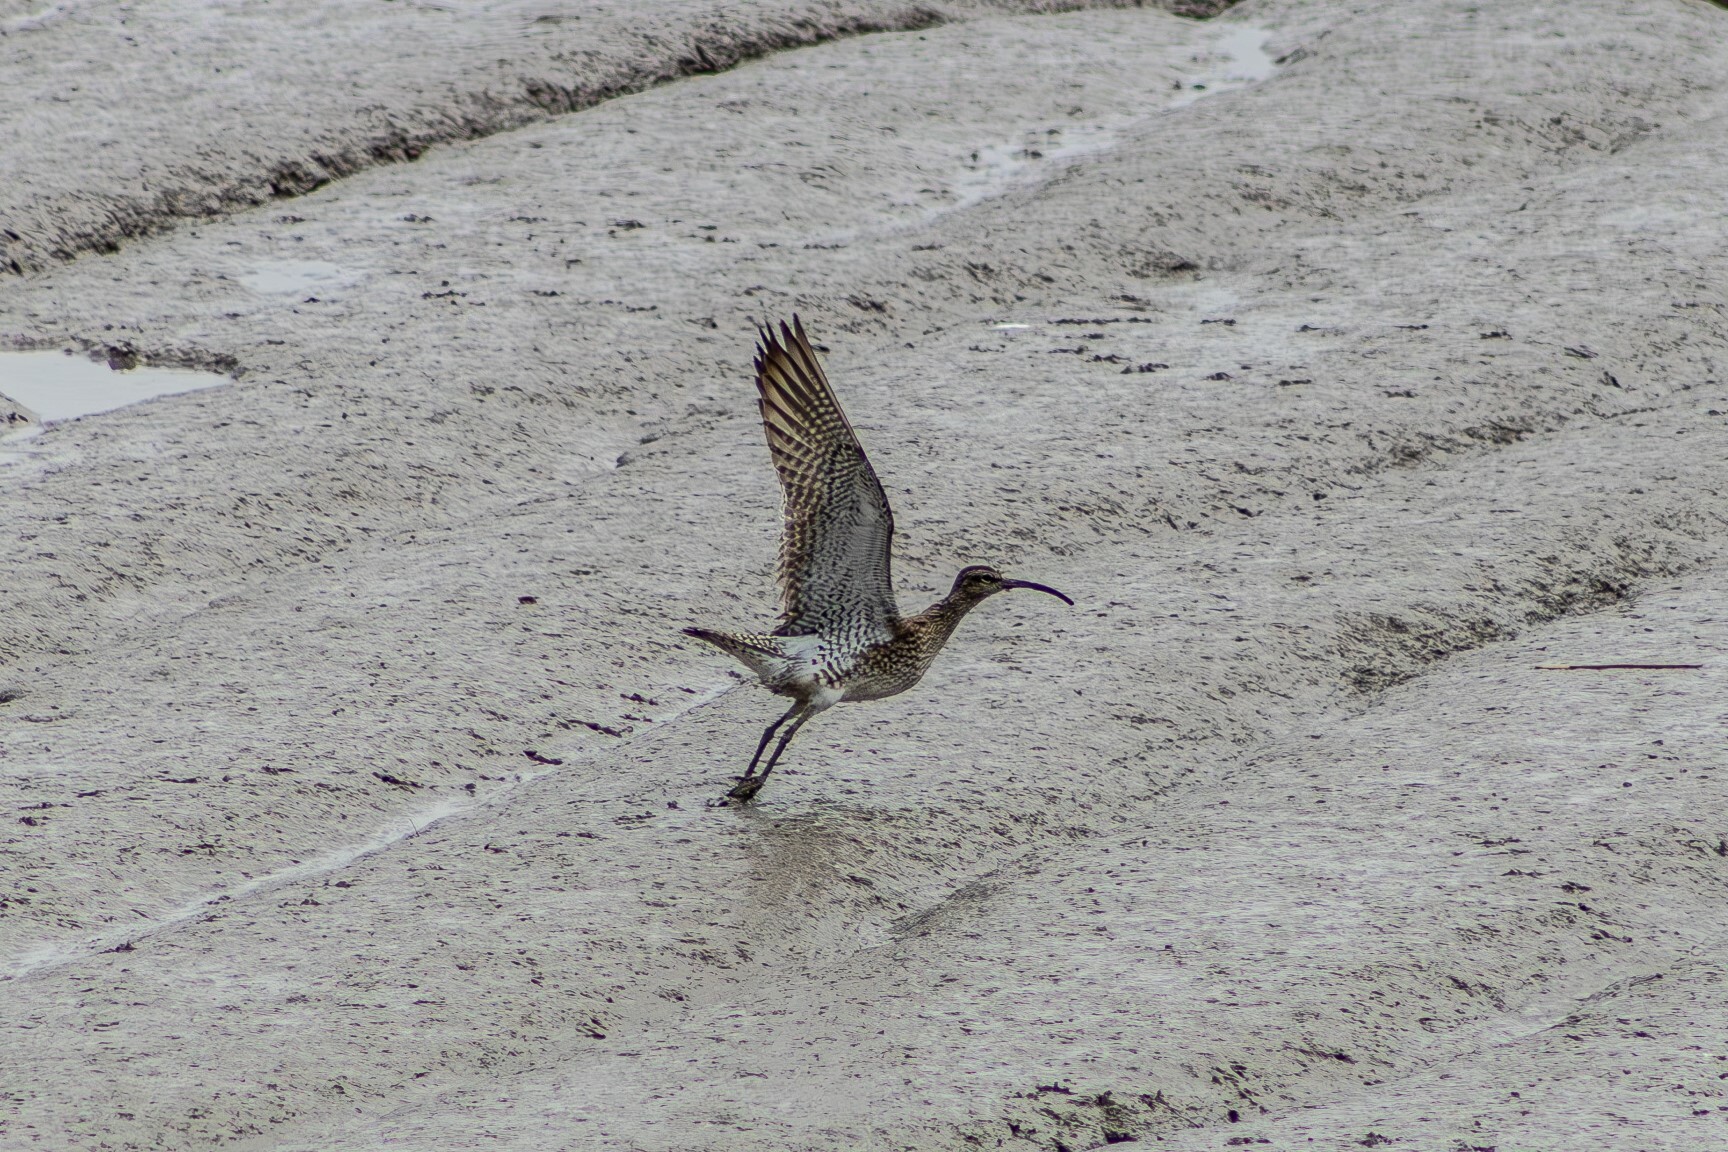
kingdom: Animalia
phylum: Chordata
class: Aves
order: Charadriiformes
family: Scolopacidae
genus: Numenius
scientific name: Numenius phaeopus
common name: Whimbrel
